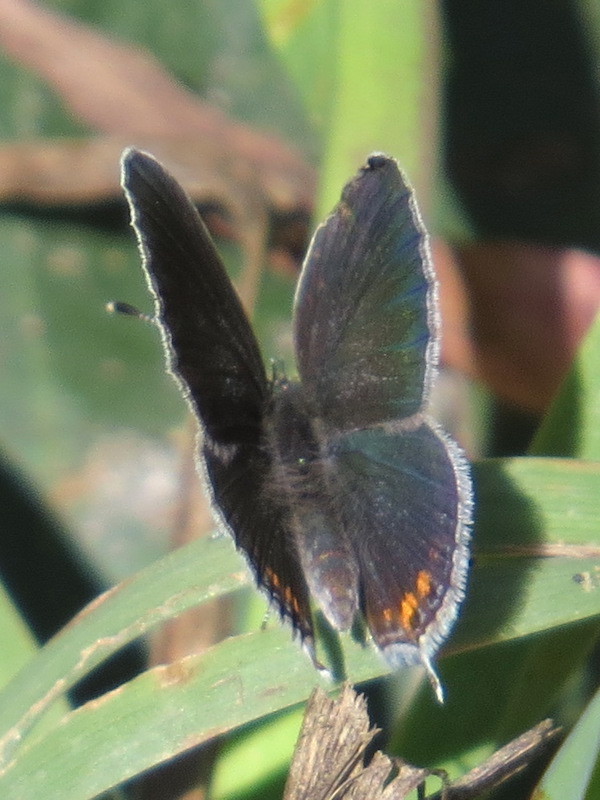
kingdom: Animalia
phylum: Arthropoda
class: Insecta
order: Lepidoptera
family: Lycaenidae
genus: Elkalyce
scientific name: Elkalyce comyntas
